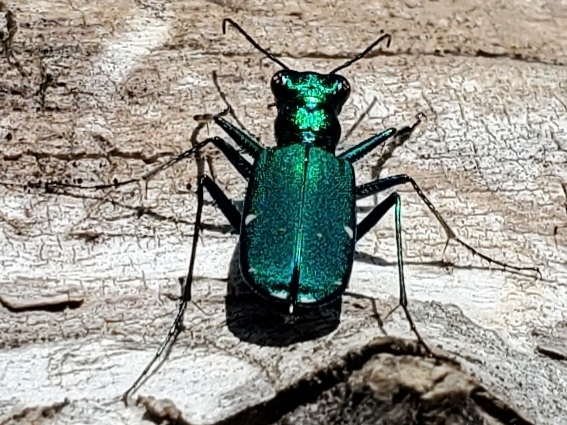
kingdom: Animalia
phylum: Arthropoda
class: Insecta
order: Coleoptera
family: Carabidae
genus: Cicindela
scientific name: Cicindela sexguttata
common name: Six-spotted tiger beetle
